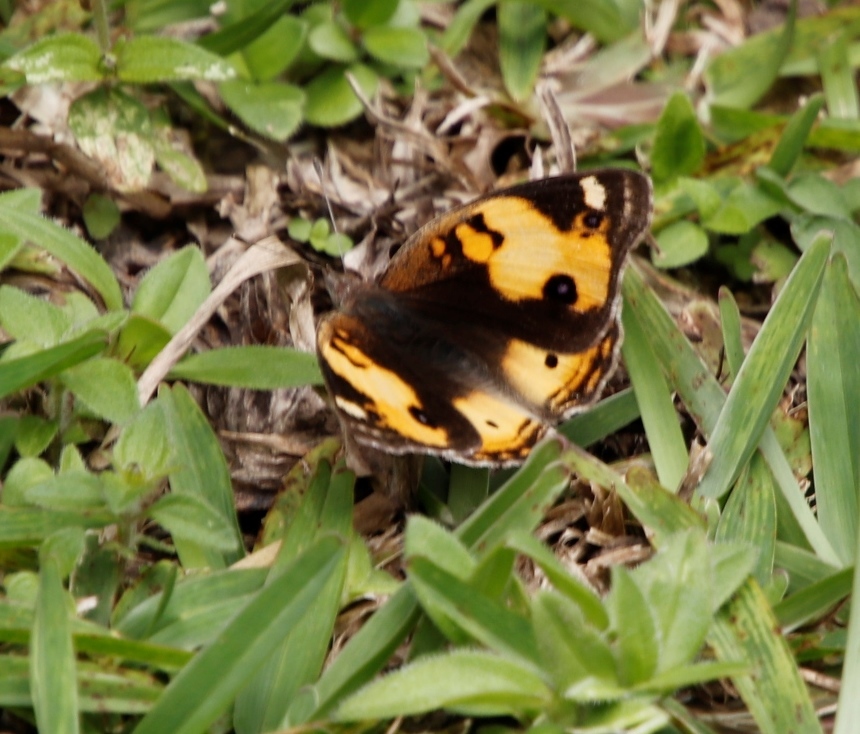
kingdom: Animalia
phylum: Arthropoda
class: Insecta
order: Lepidoptera
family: Nymphalidae
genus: Junonia
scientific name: Junonia hierta
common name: Yellow pansy
